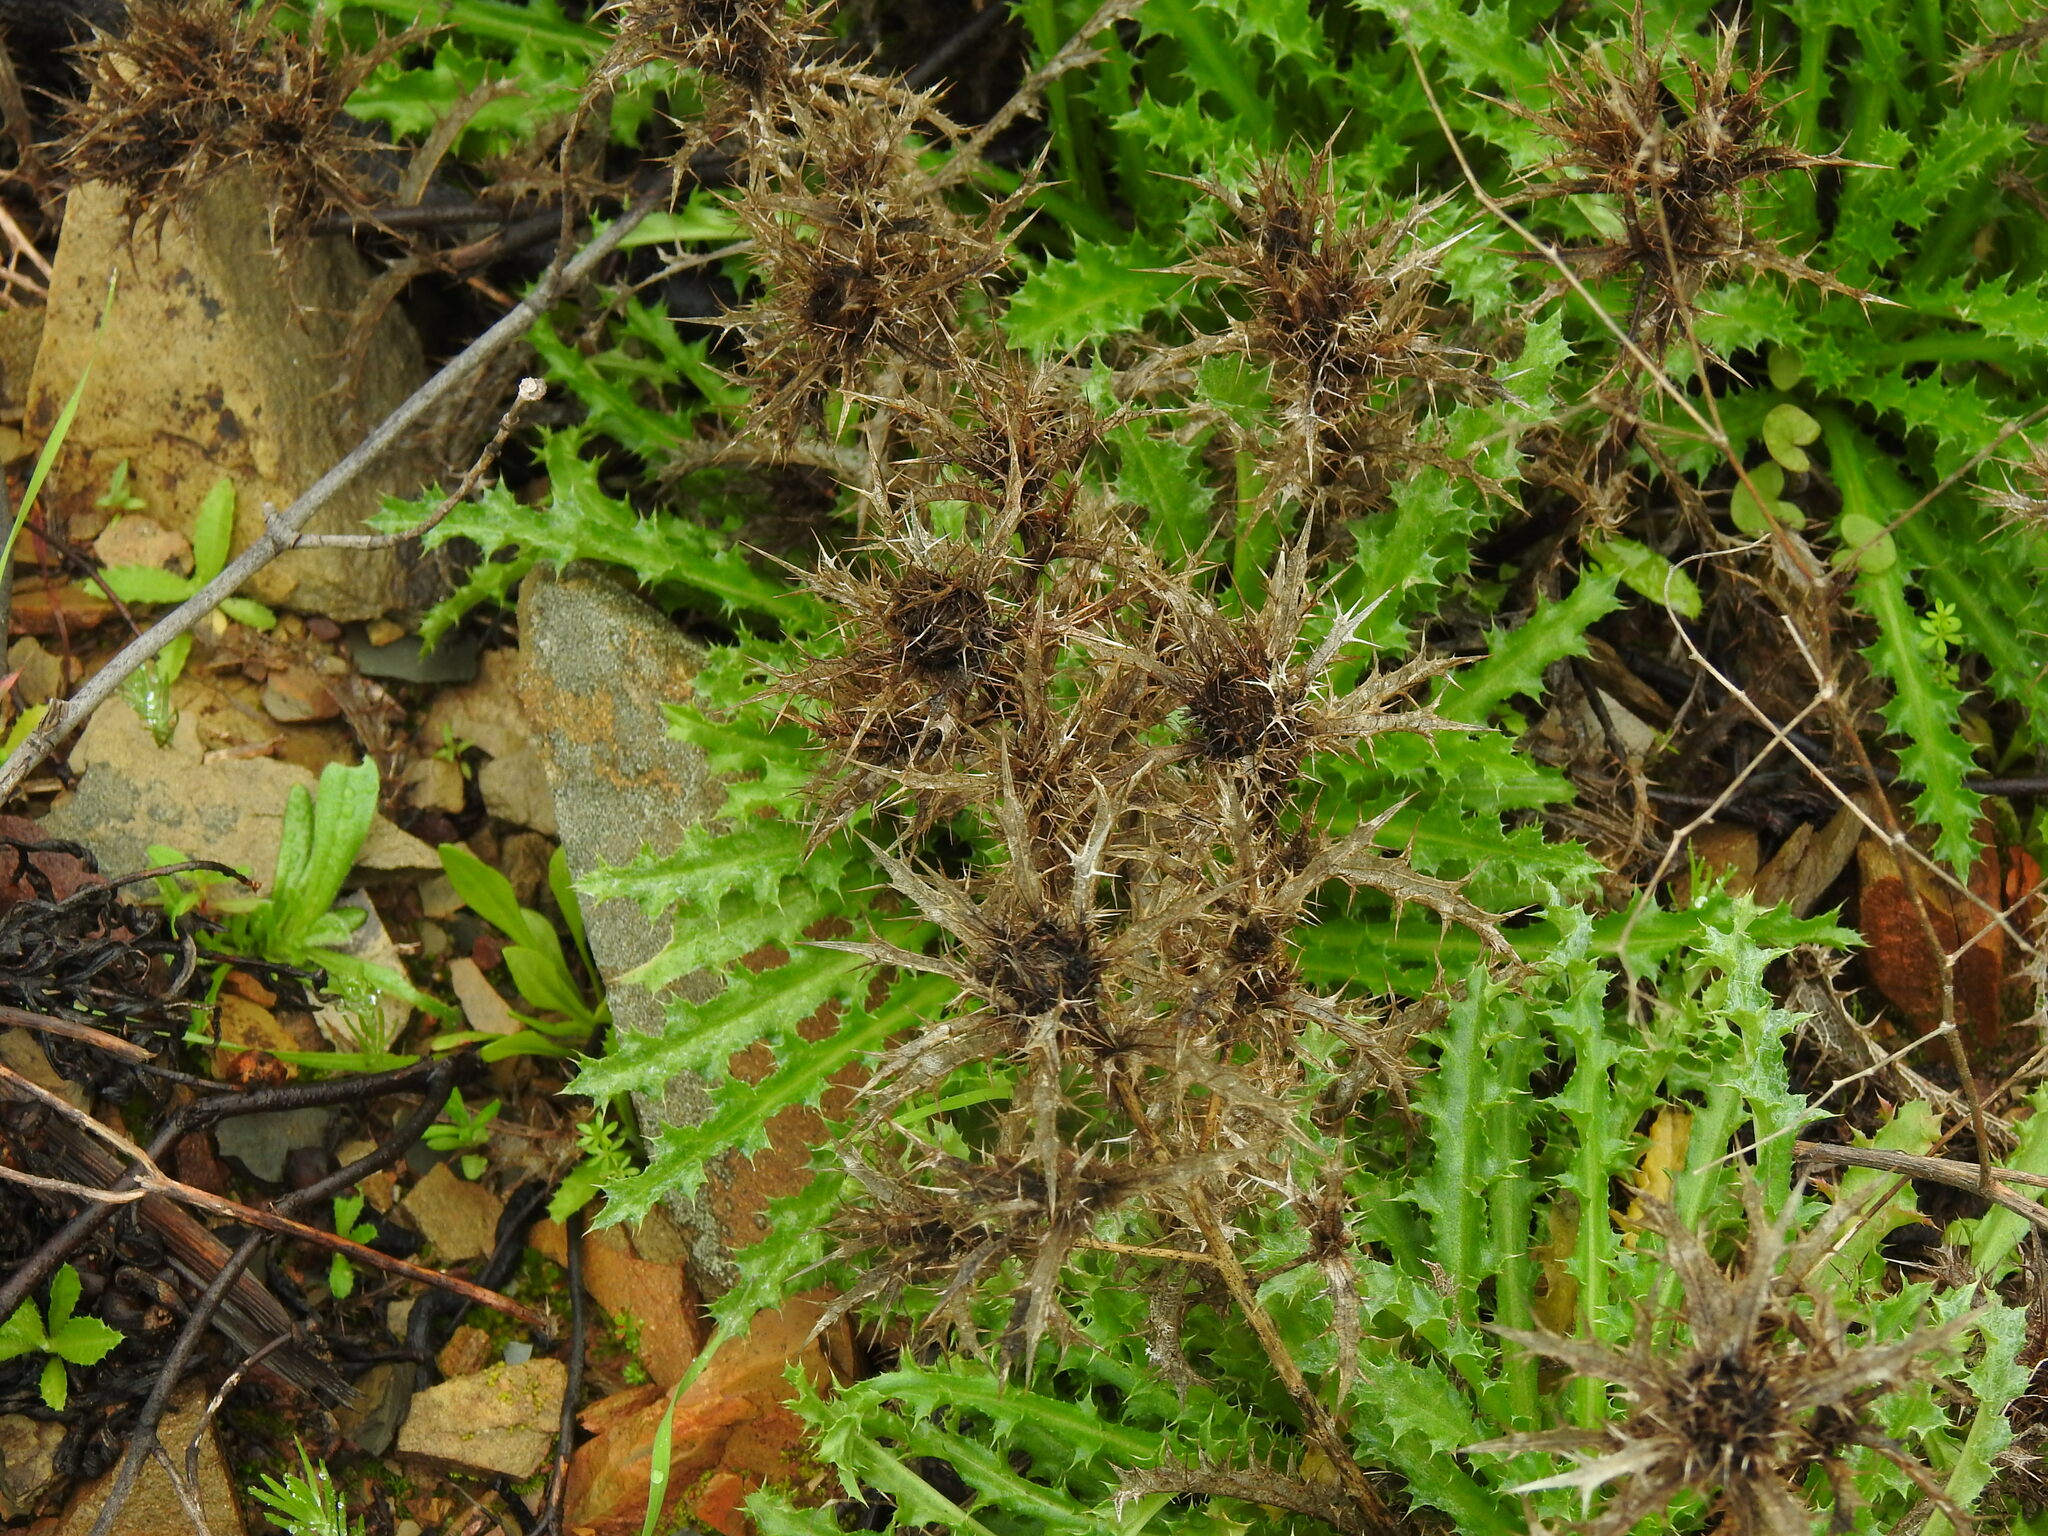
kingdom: Plantae
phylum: Tracheophyta
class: Magnoliopsida
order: Asterales
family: Asteraceae
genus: Carlina
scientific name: Carlina hispanica
